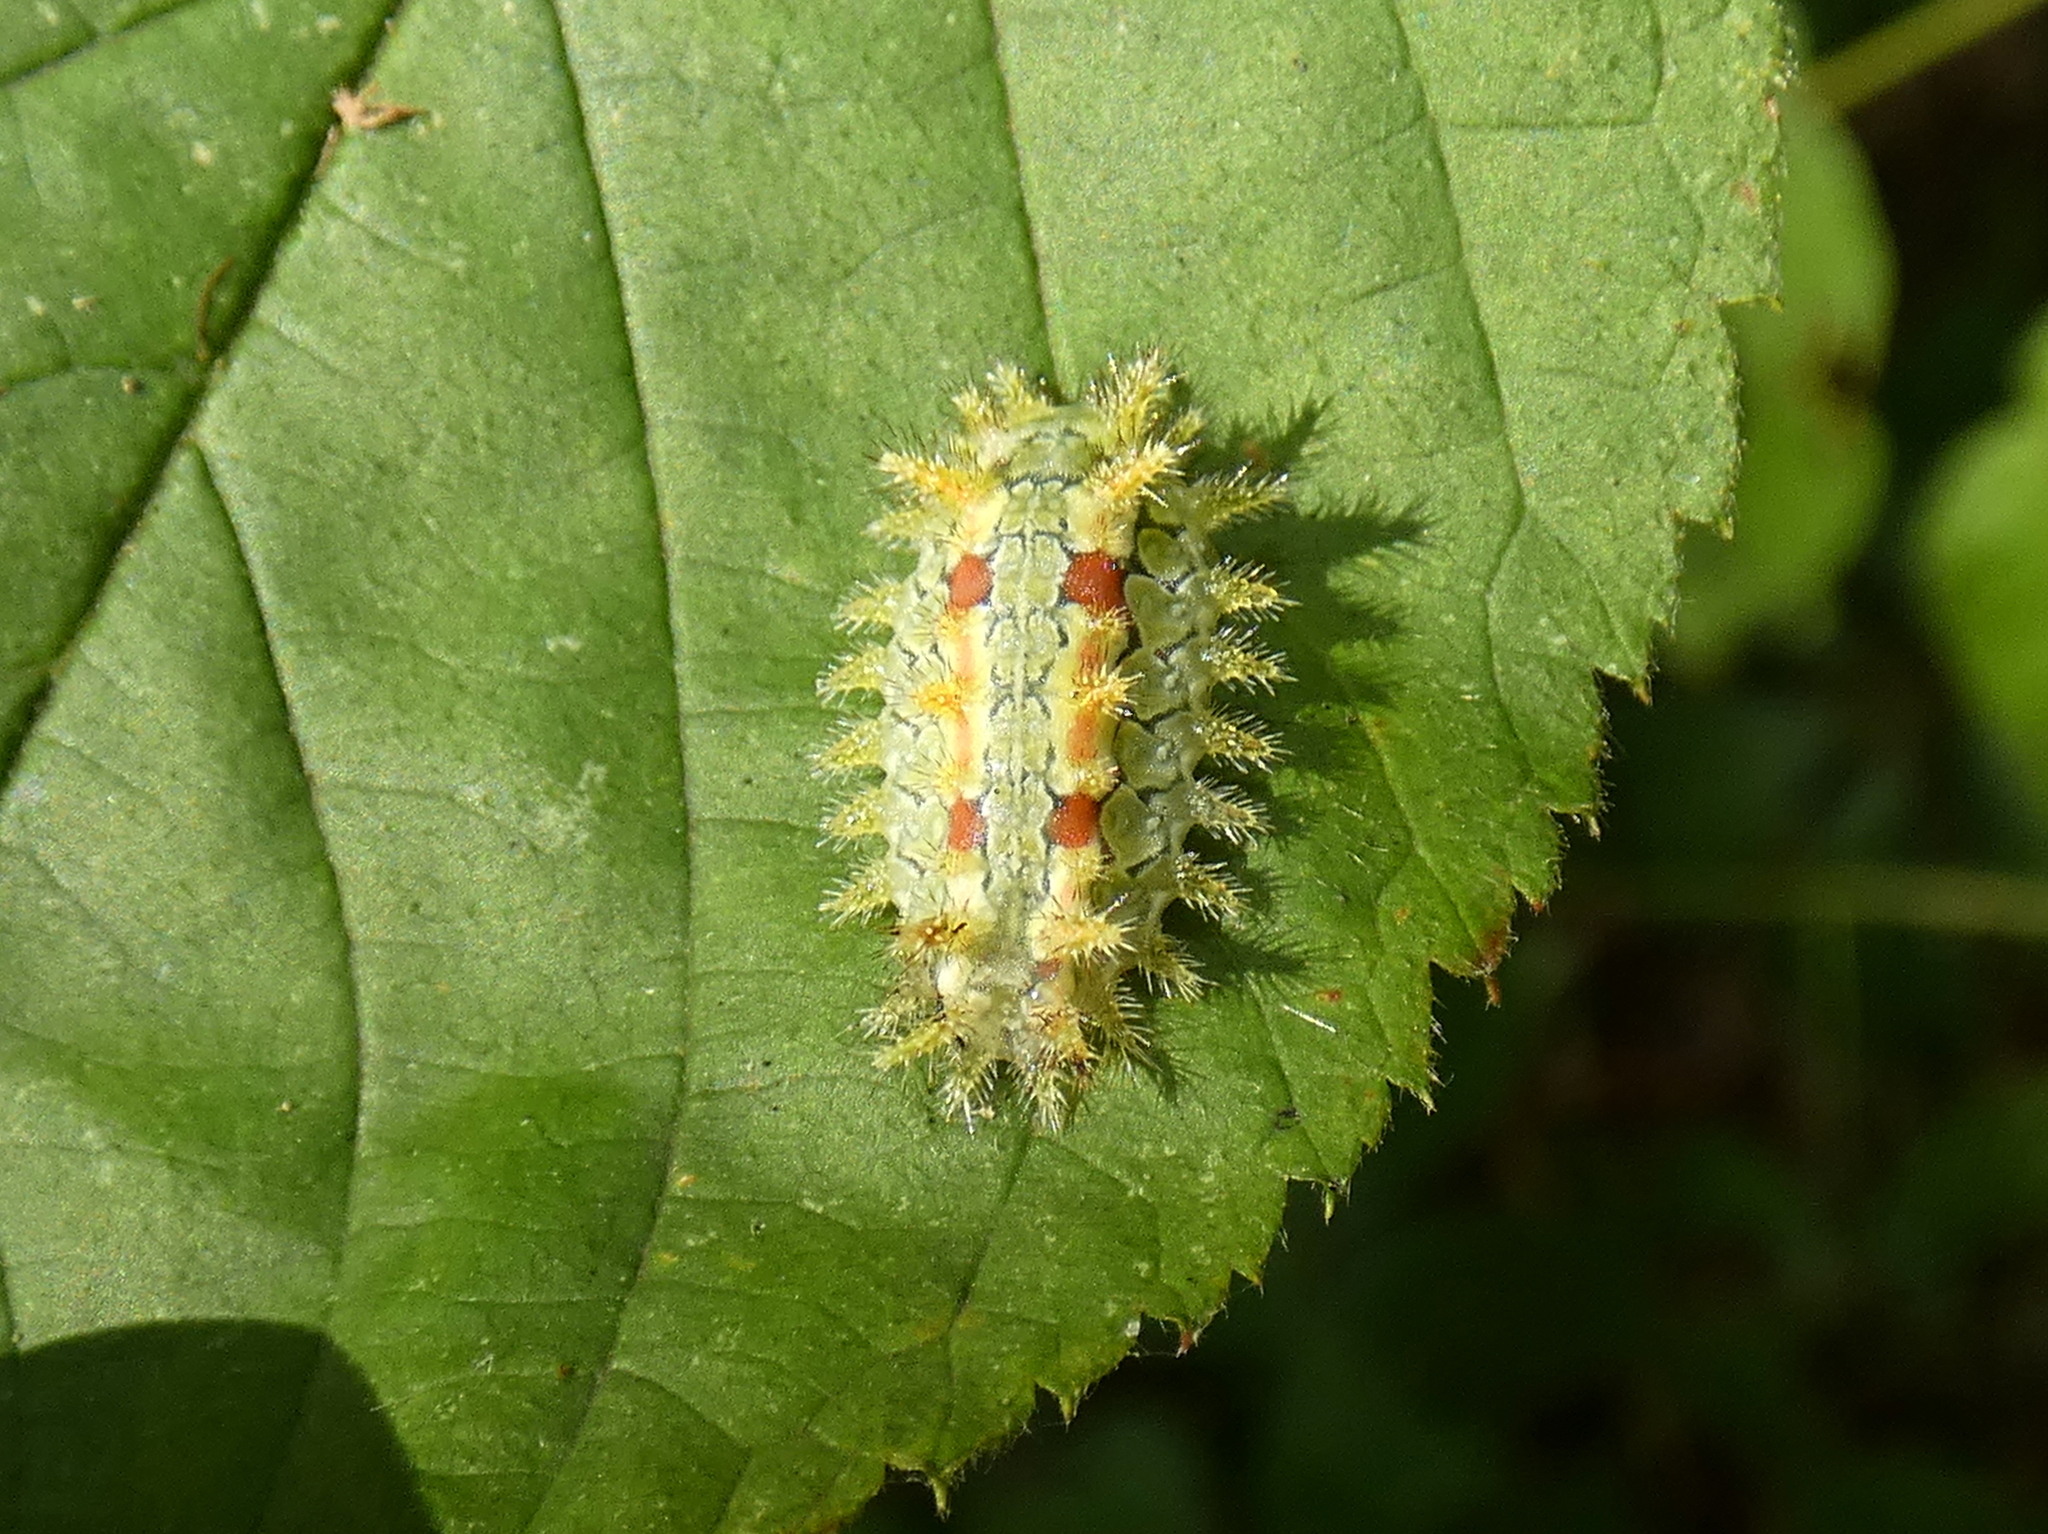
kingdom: Animalia
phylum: Arthropoda
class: Insecta
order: Lepidoptera
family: Limacodidae
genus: Euclea
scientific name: Euclea delphinii
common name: Spiny oak-slug moth
